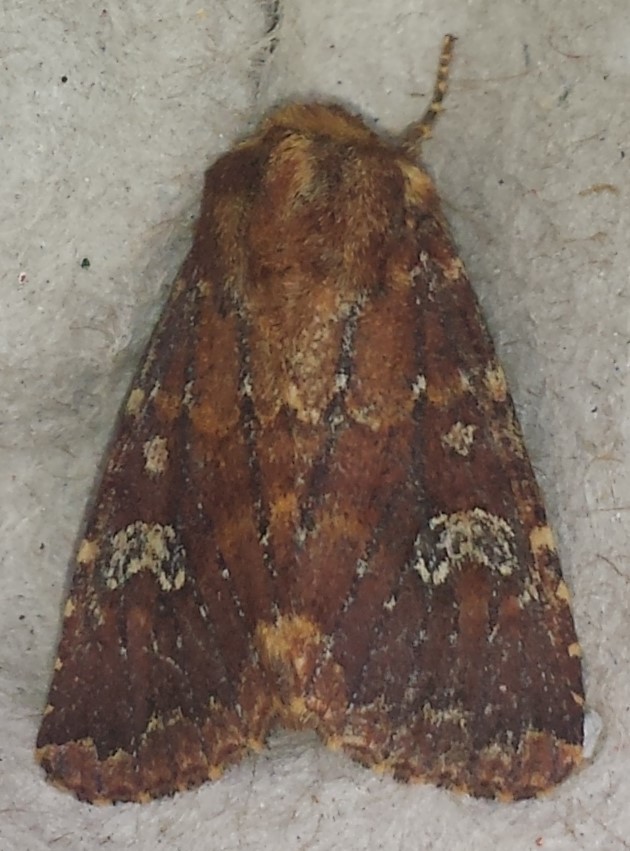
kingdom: Animalia
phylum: Arthropoda
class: Insecta
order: Lepidoptera
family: Noctuidae
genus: Sideridis
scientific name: Sideridis congermana
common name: German cousin moth
